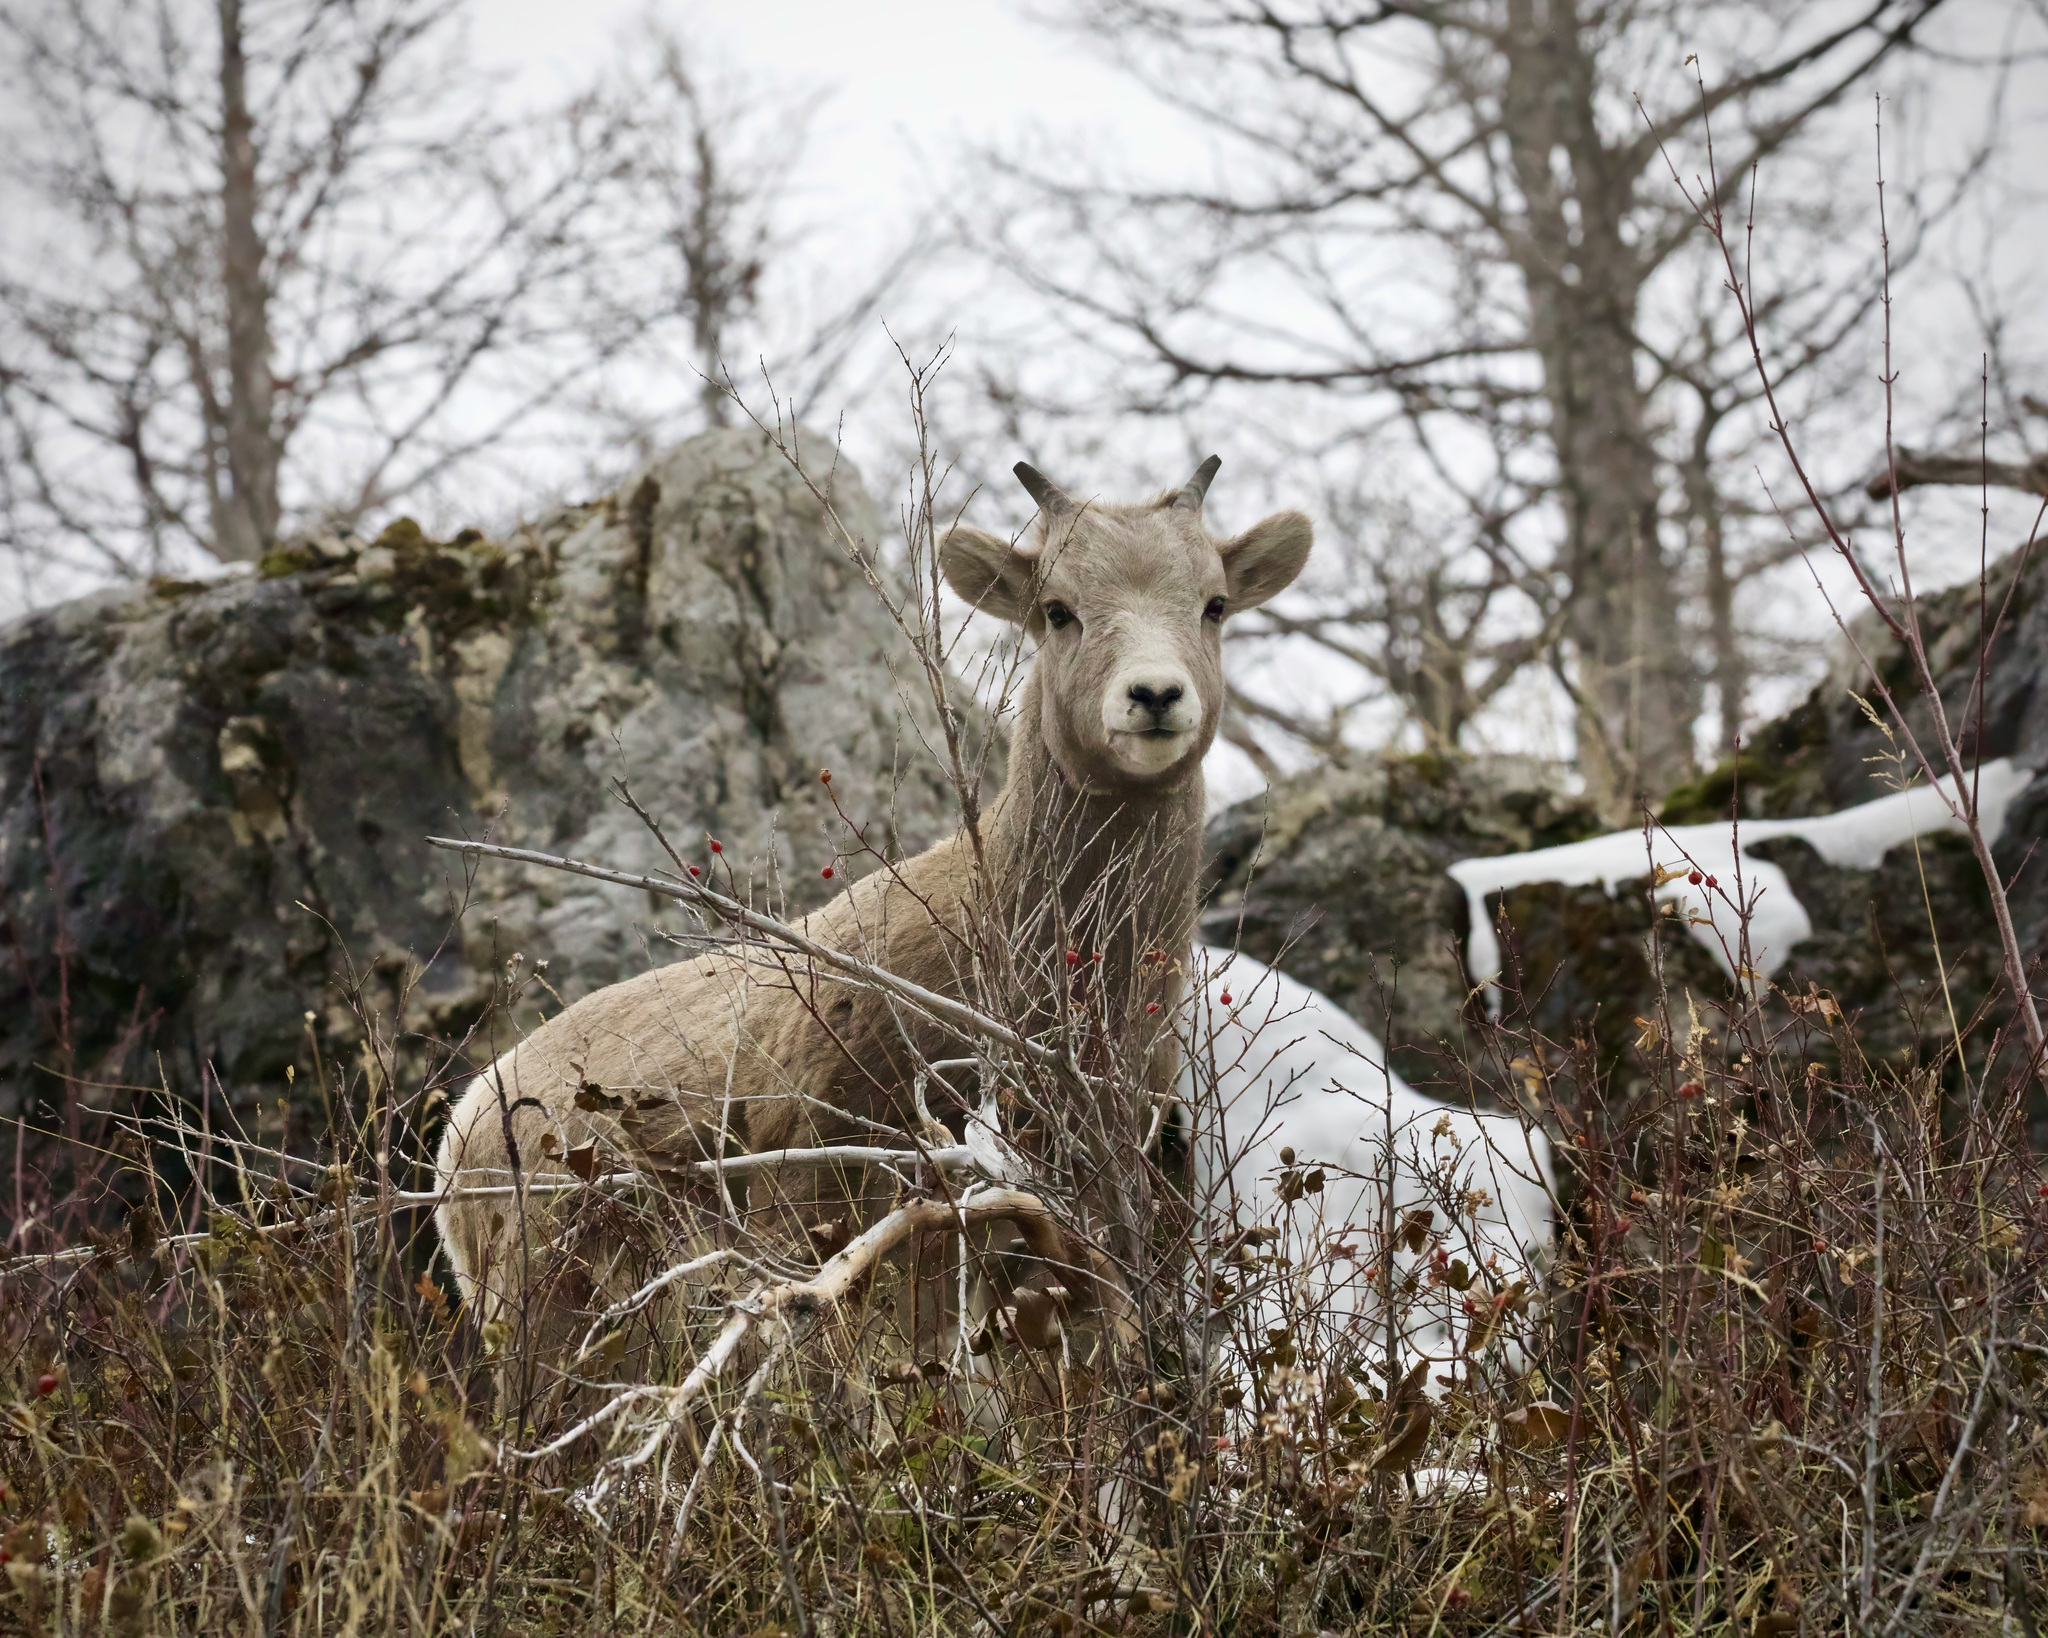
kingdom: Animalia
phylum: Chordata
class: Mammalia
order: Artiodactyla
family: Bovidae
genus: Ovis
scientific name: Ovis canadensis
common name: Bighorn sheep
